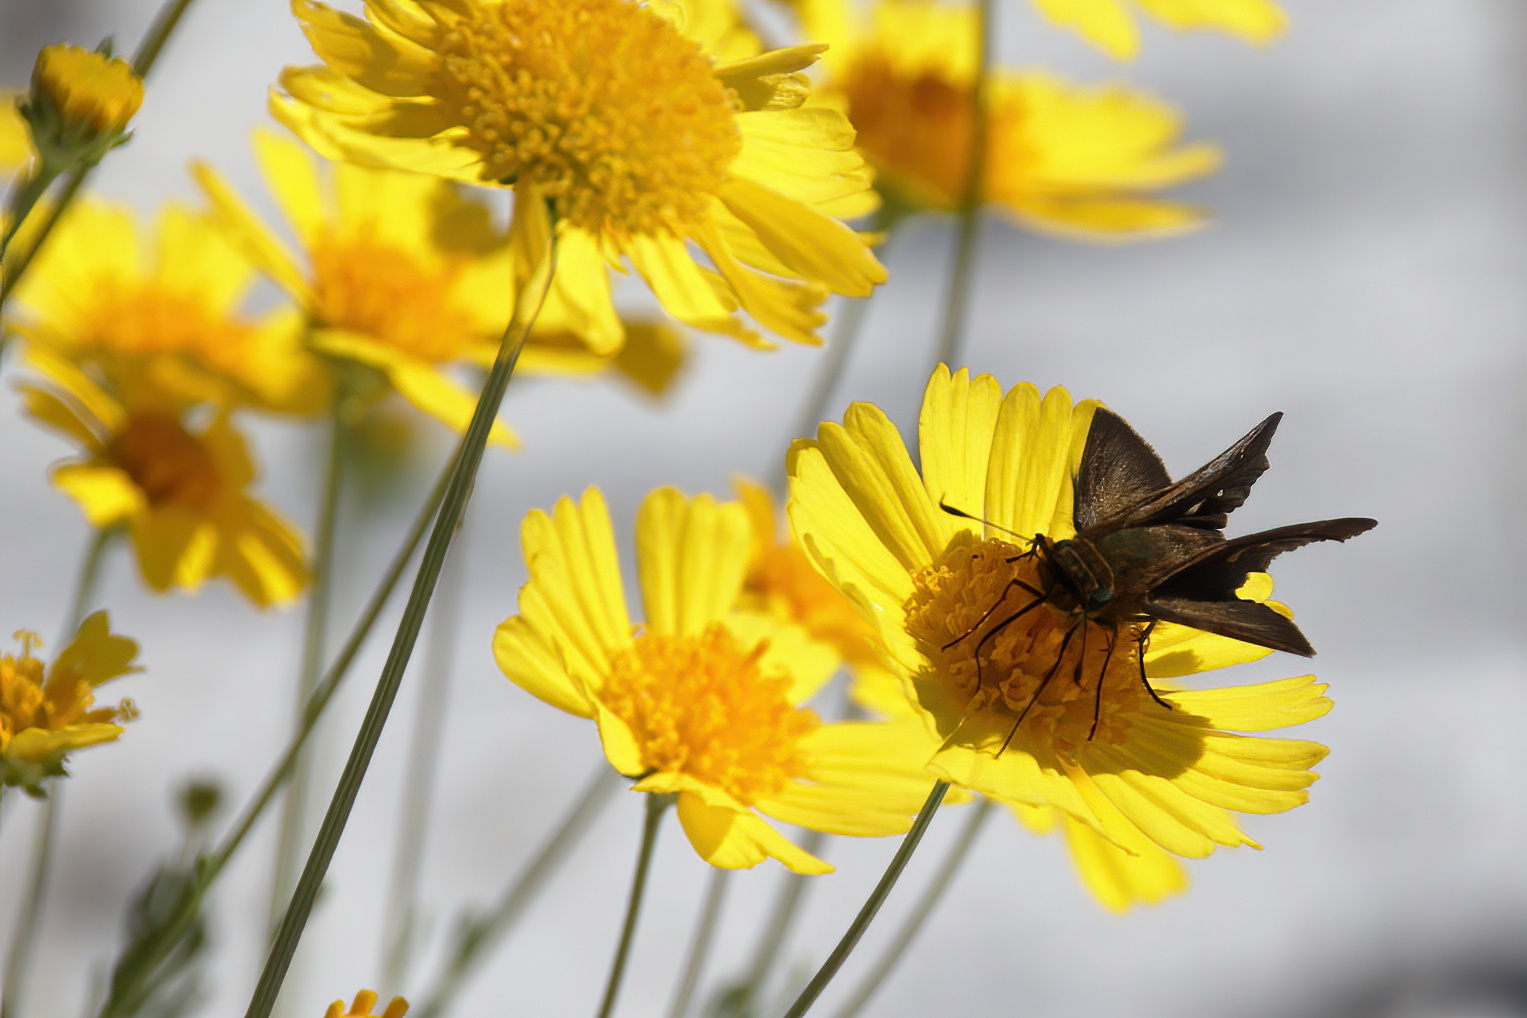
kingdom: Animalia
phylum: Arthropoda
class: Insecta
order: Lepidoptera
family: Hesperiidae
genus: Panoquina
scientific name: Panoquina ocola
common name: Ocola skipper
